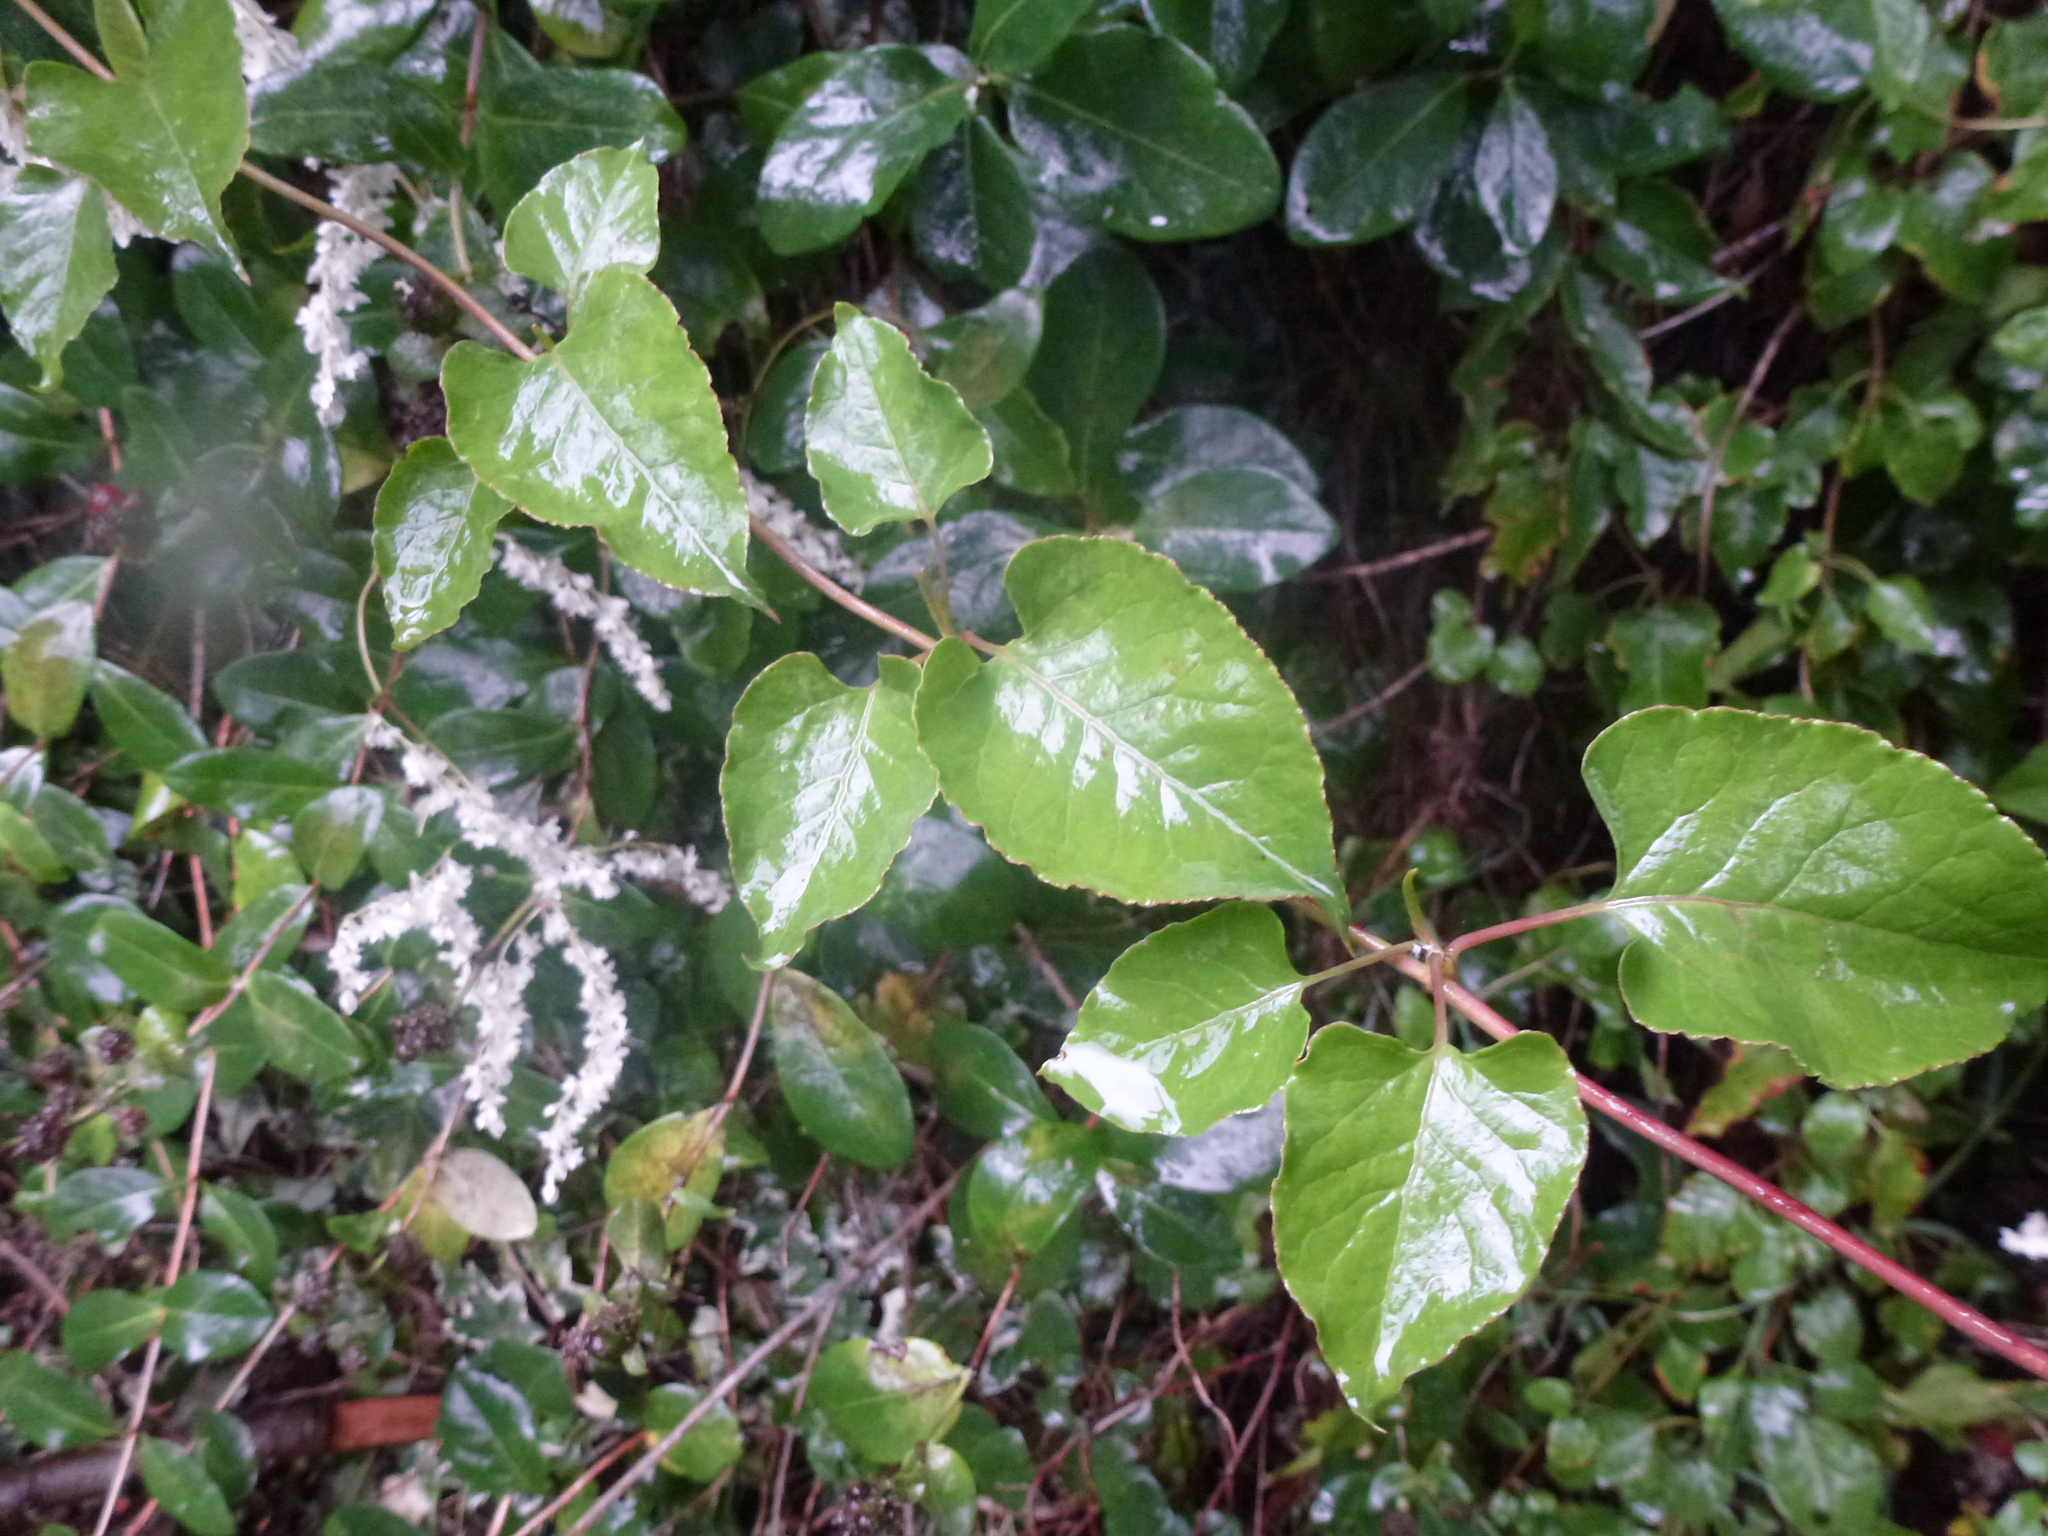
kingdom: Plantae
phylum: Tracheophyta
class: Magnoliopsida
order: Caryophyllales
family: Polygonaceae
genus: Fallopia
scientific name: Fallopia baldschuanica
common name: Russian-vine
